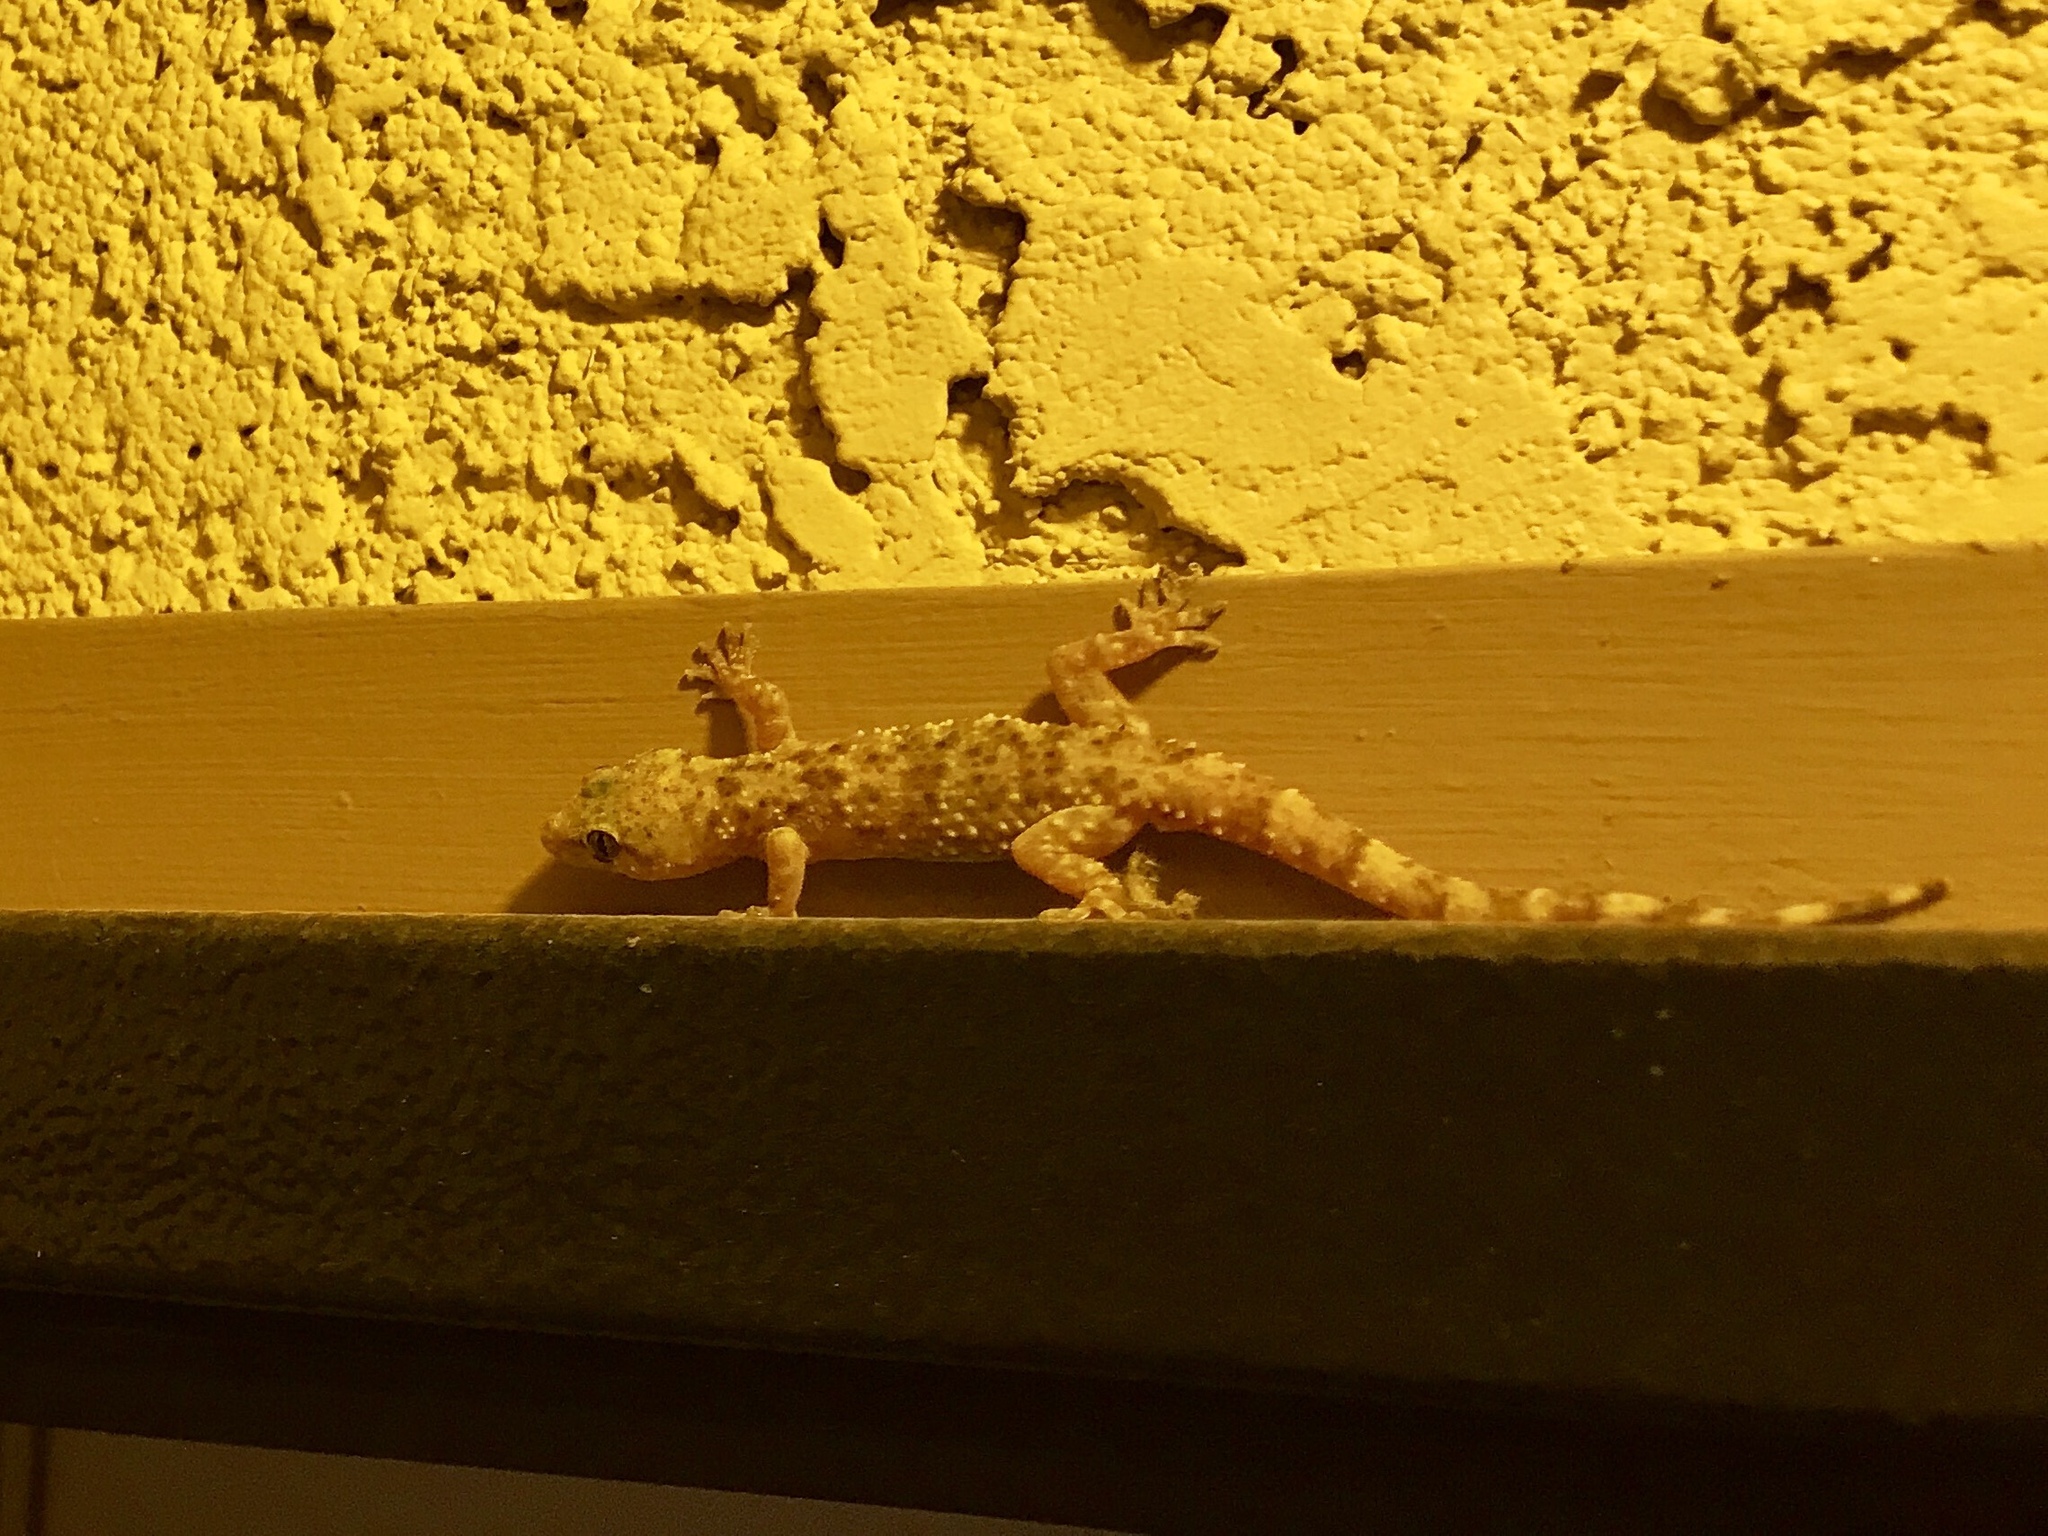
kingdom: Animalia
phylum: Chordata
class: Squamata
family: Gekkonidae
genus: Hemidactylus
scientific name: Hemidactylus turcicus
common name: Turkish gecko
